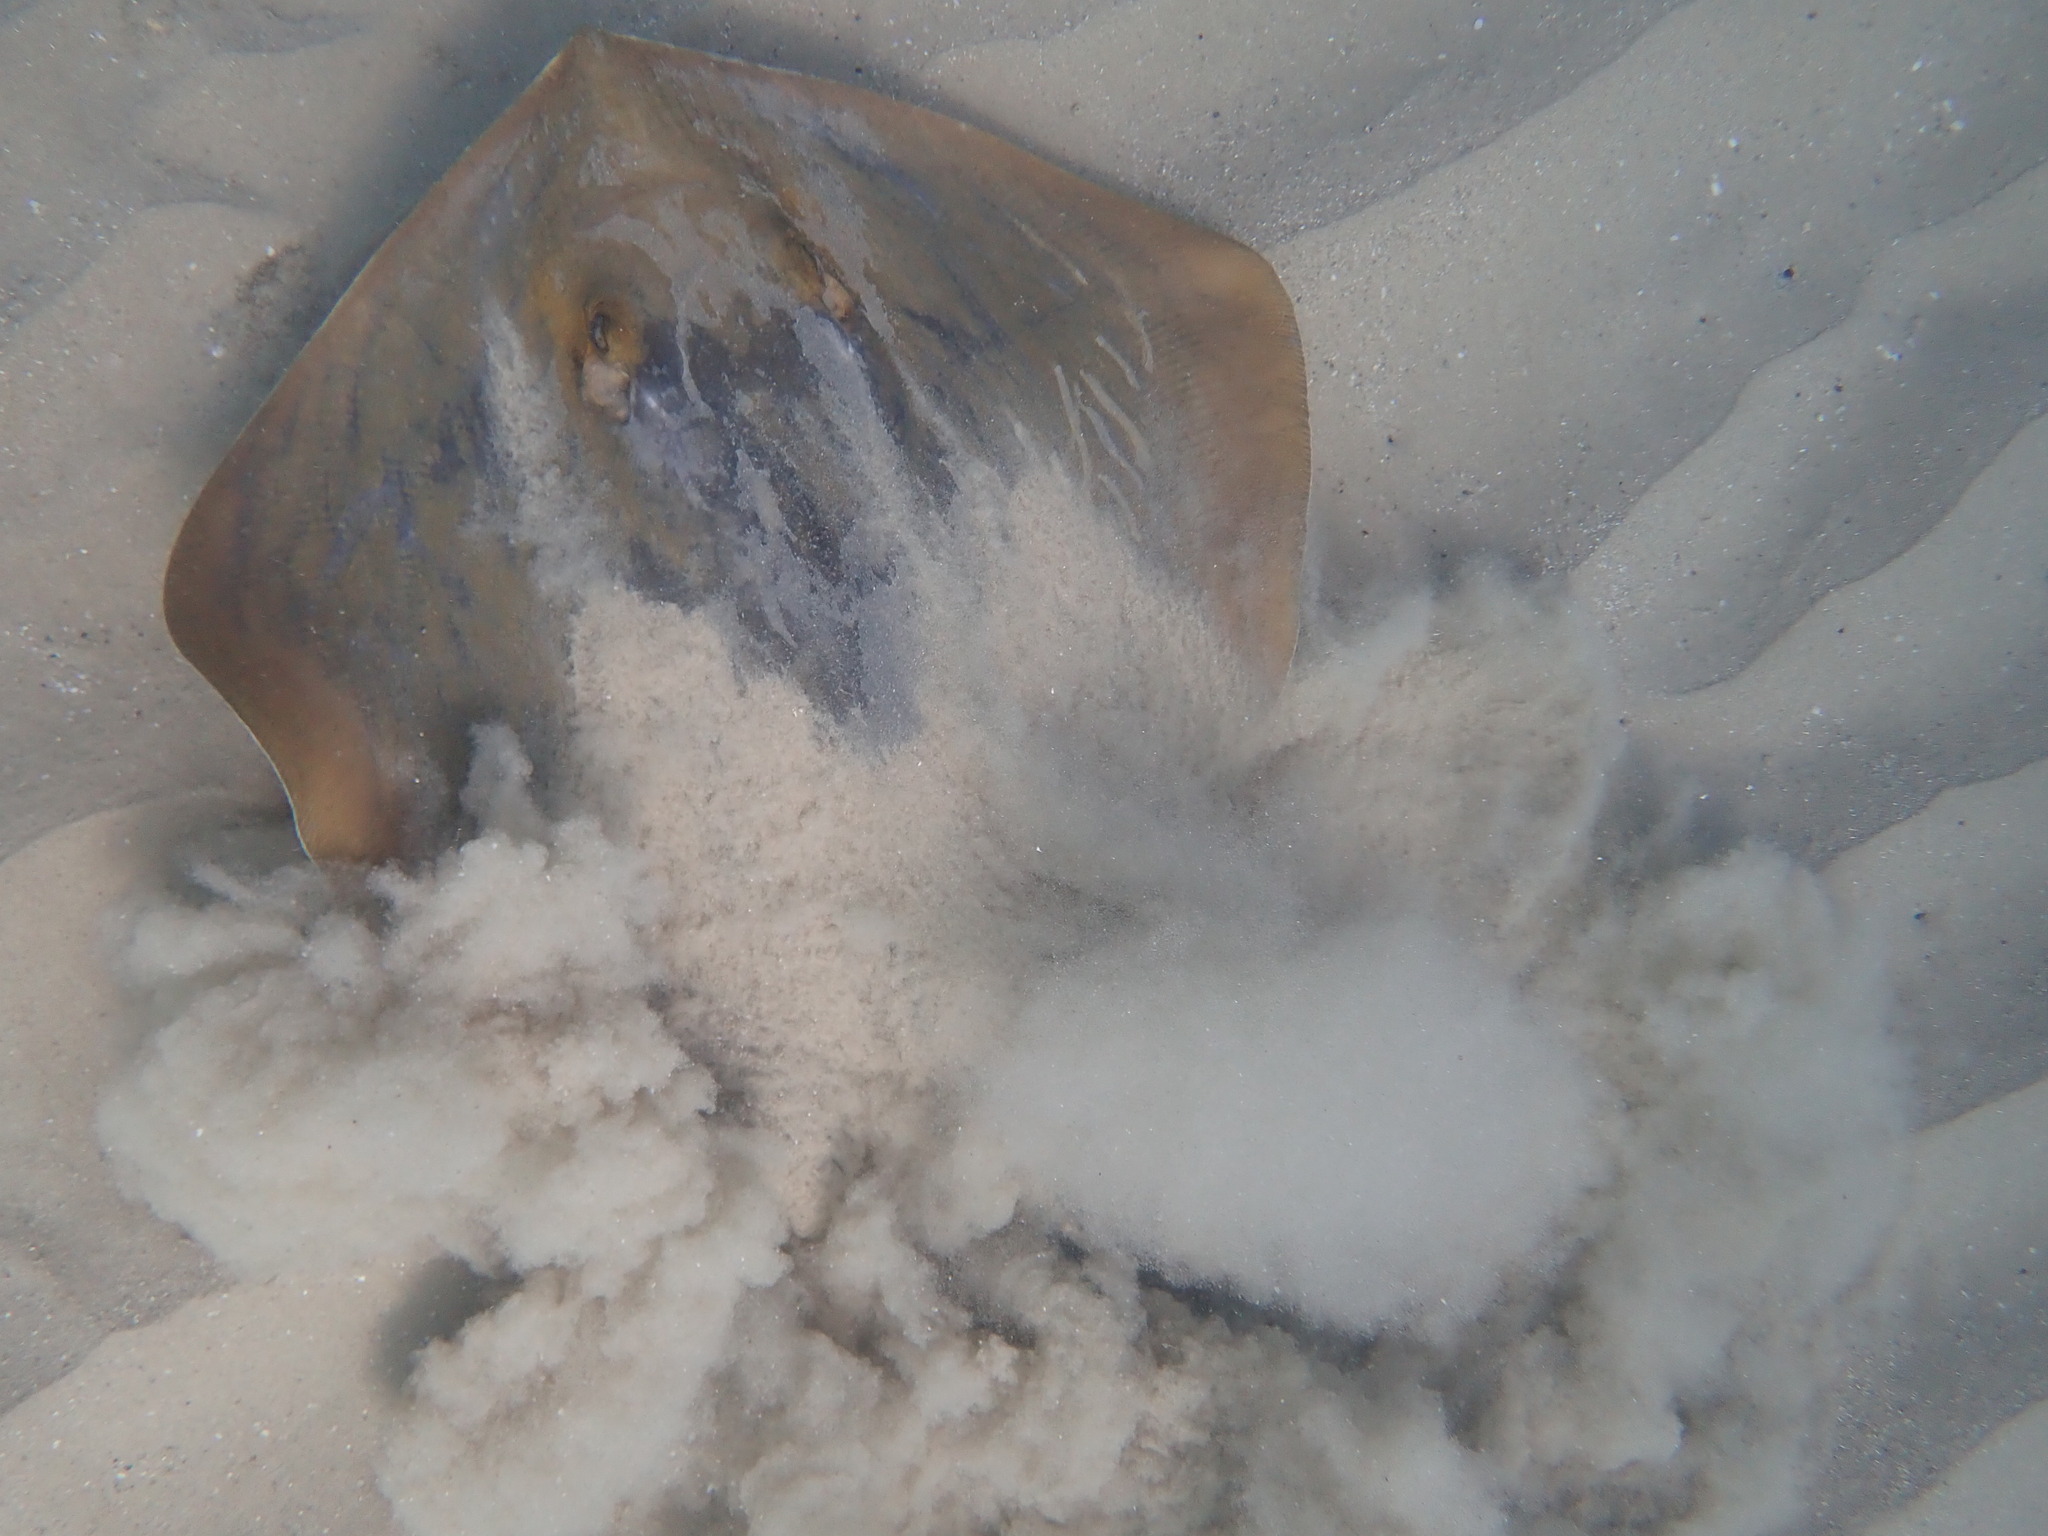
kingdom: Animalia
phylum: Chordata
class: Elasmobranchii
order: Myliobatiformes
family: Dasyatidae
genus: Dasyatis
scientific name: Dasyatis pastinaca
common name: Common stingray
